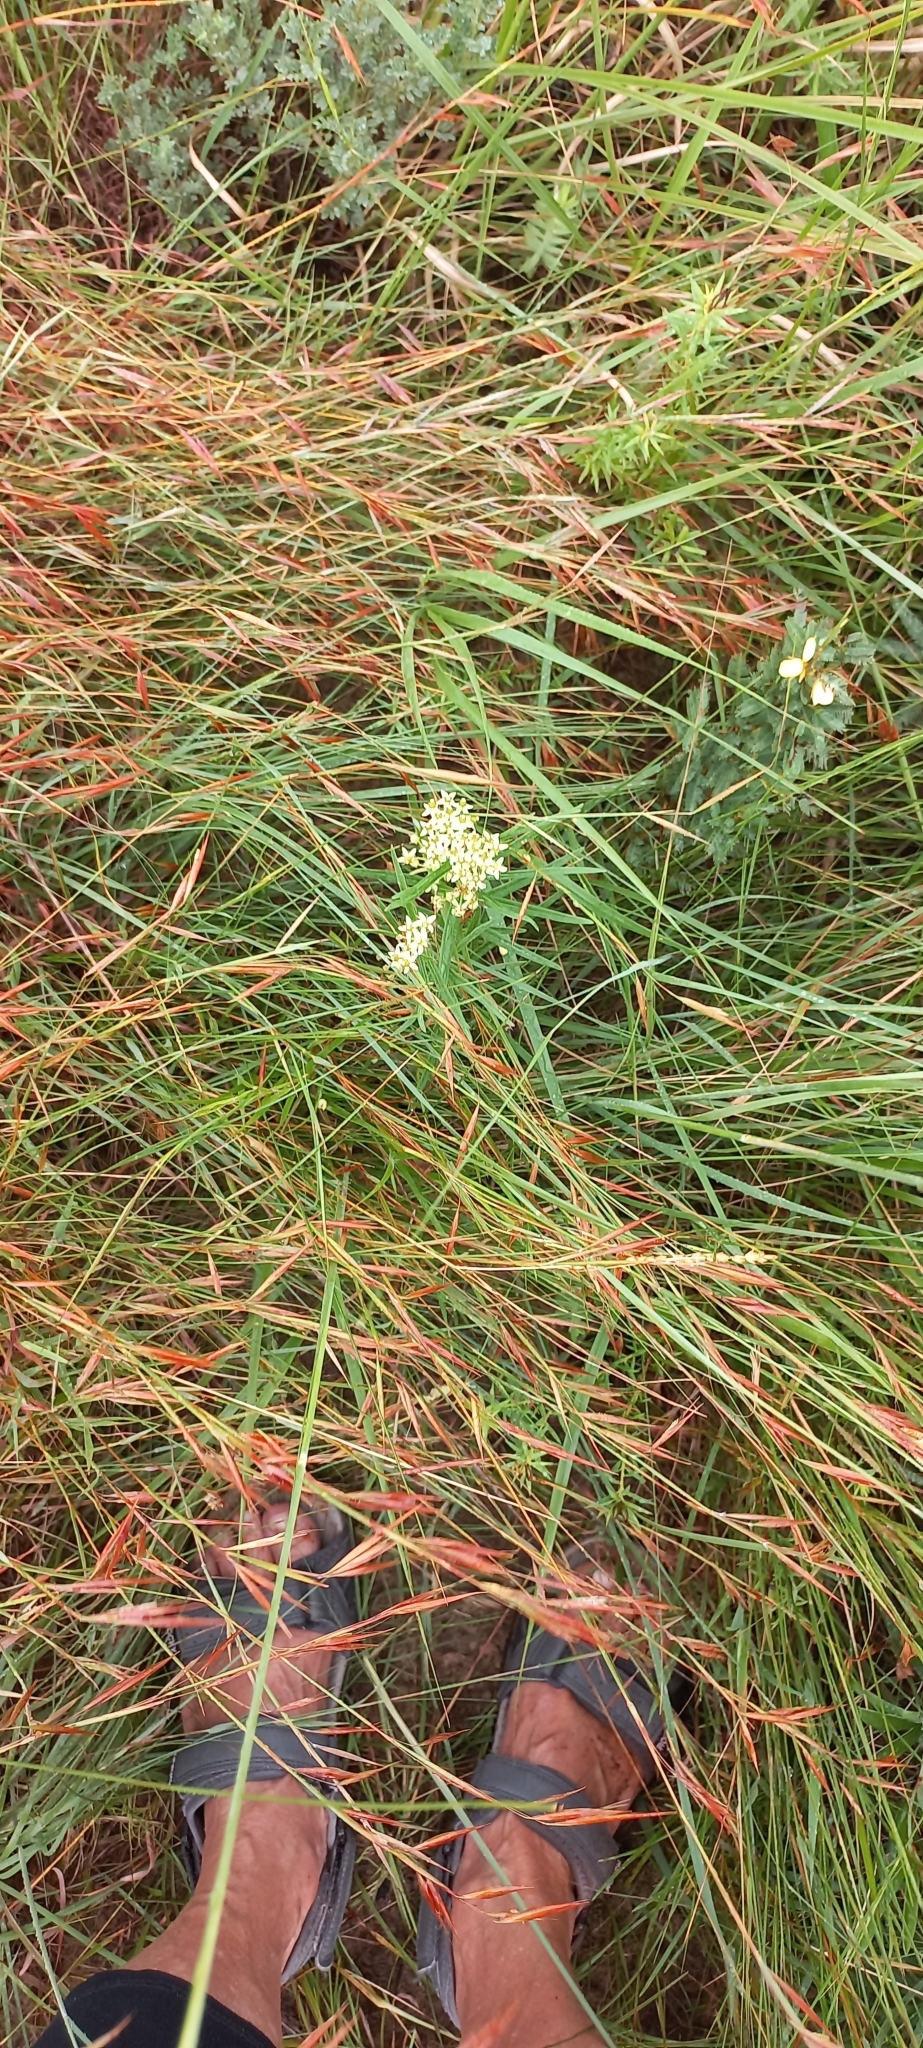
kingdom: Plantae
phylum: Tracheophyta
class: Magnoliopsida
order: Gentianales
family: Apocynaceae
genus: Xysmalobium
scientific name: Xysmalobium involucratum
